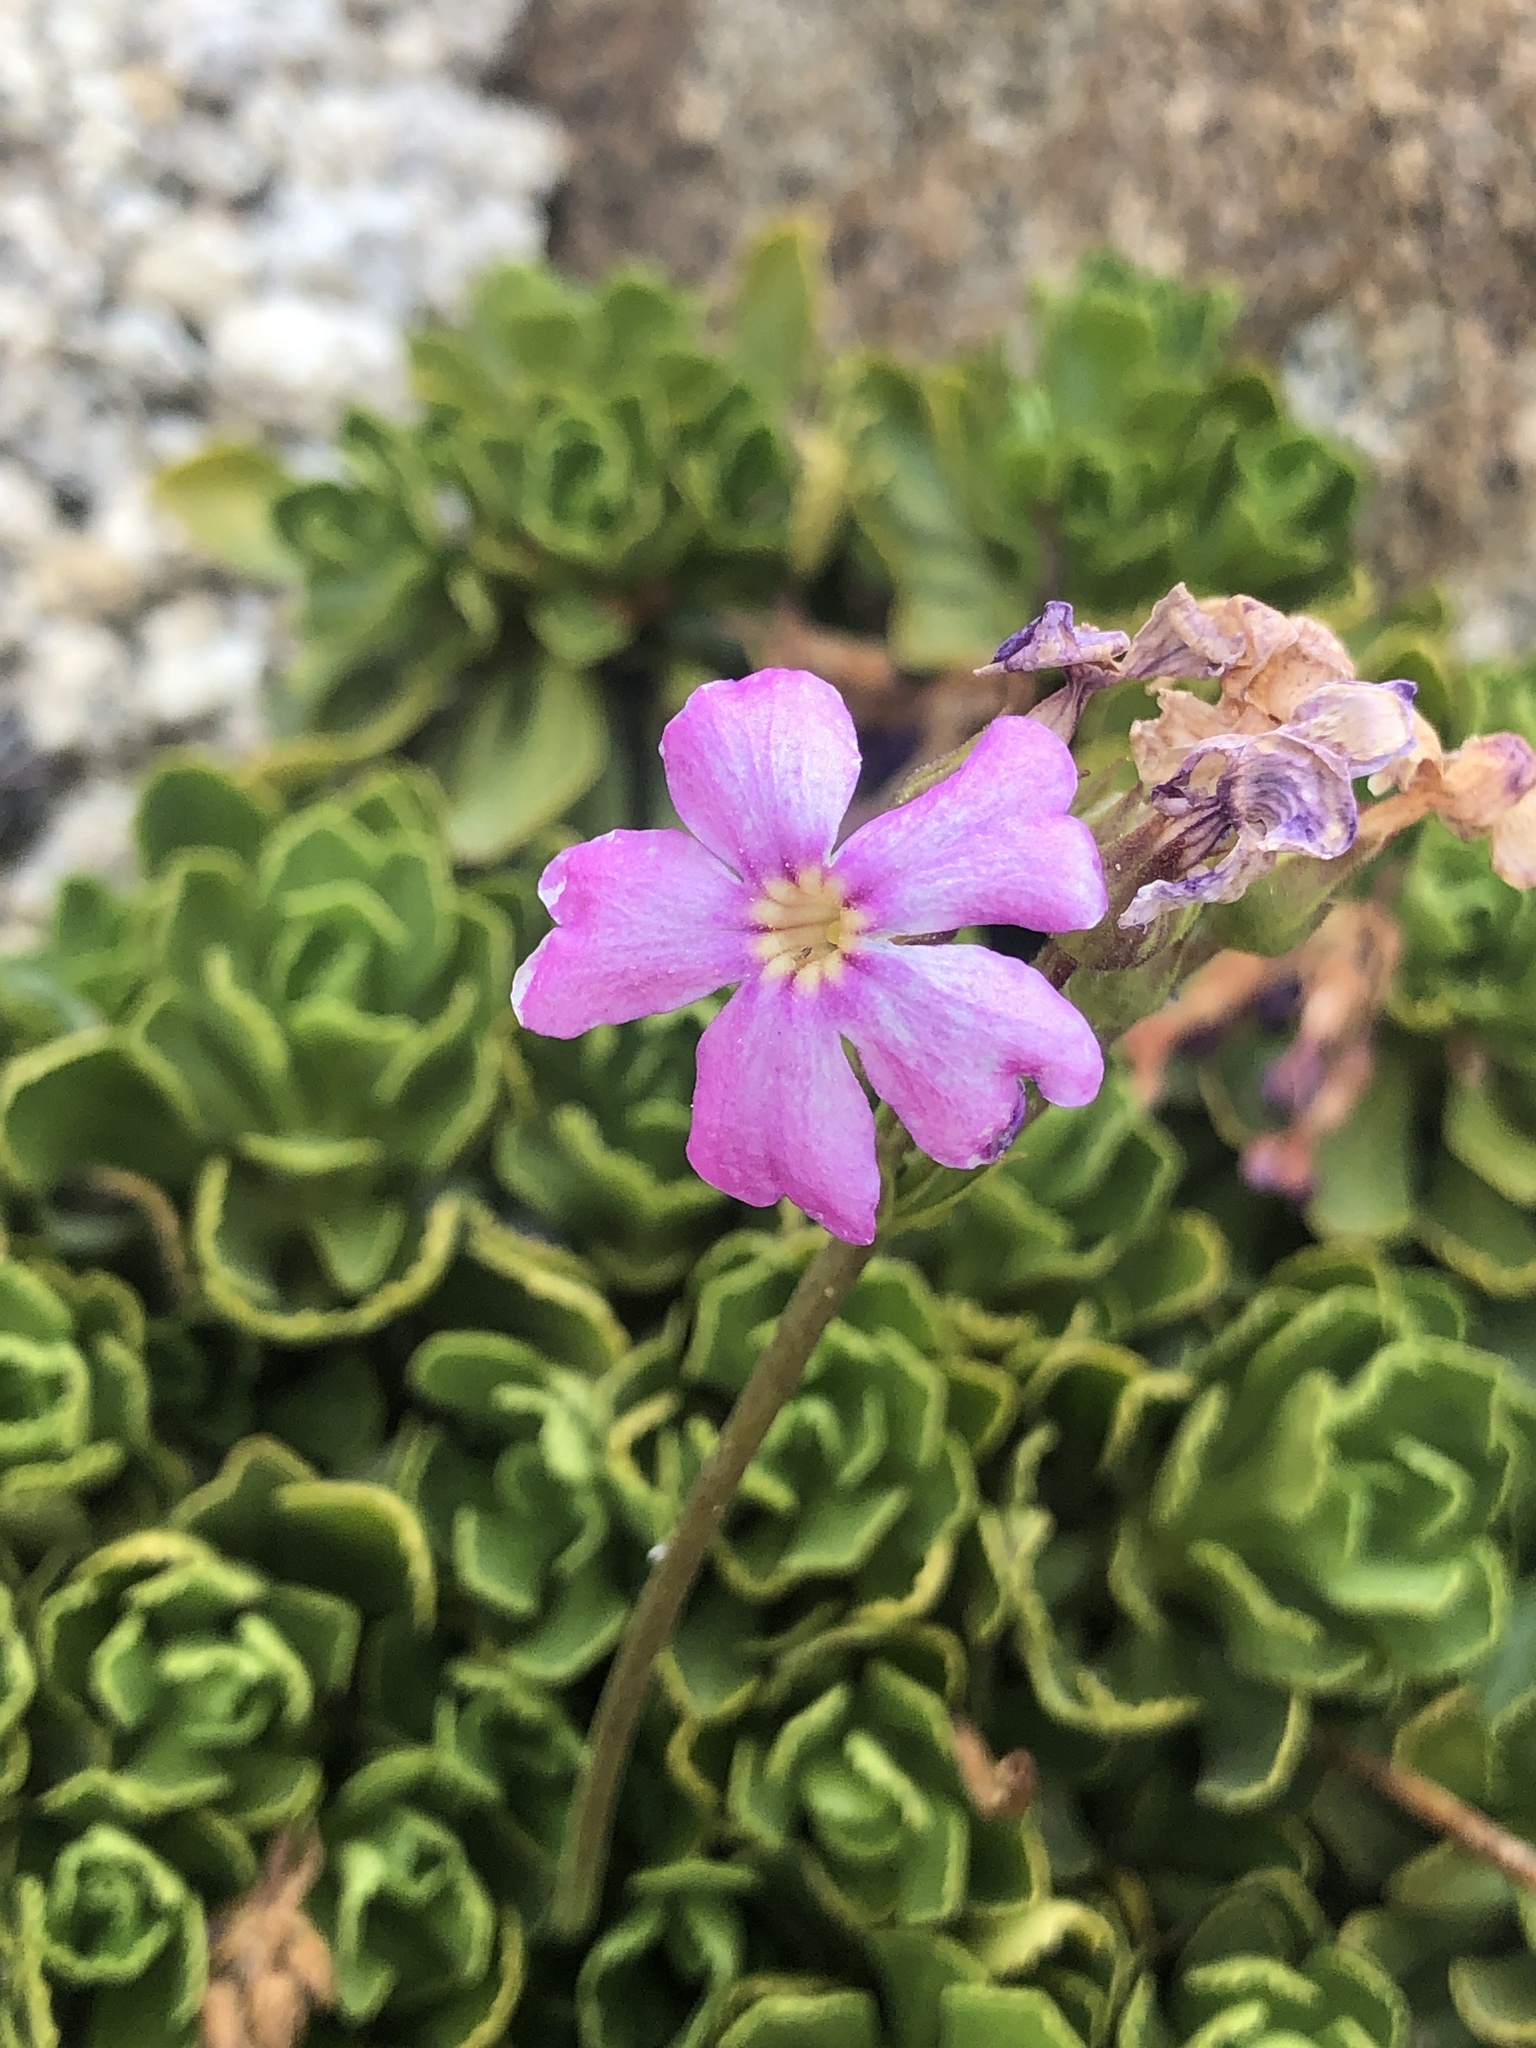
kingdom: Plantae
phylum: Tracheophyta
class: Magnoliopsida
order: Ericales
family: Primulaceae
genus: Primula
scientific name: Primula suffrutescens
